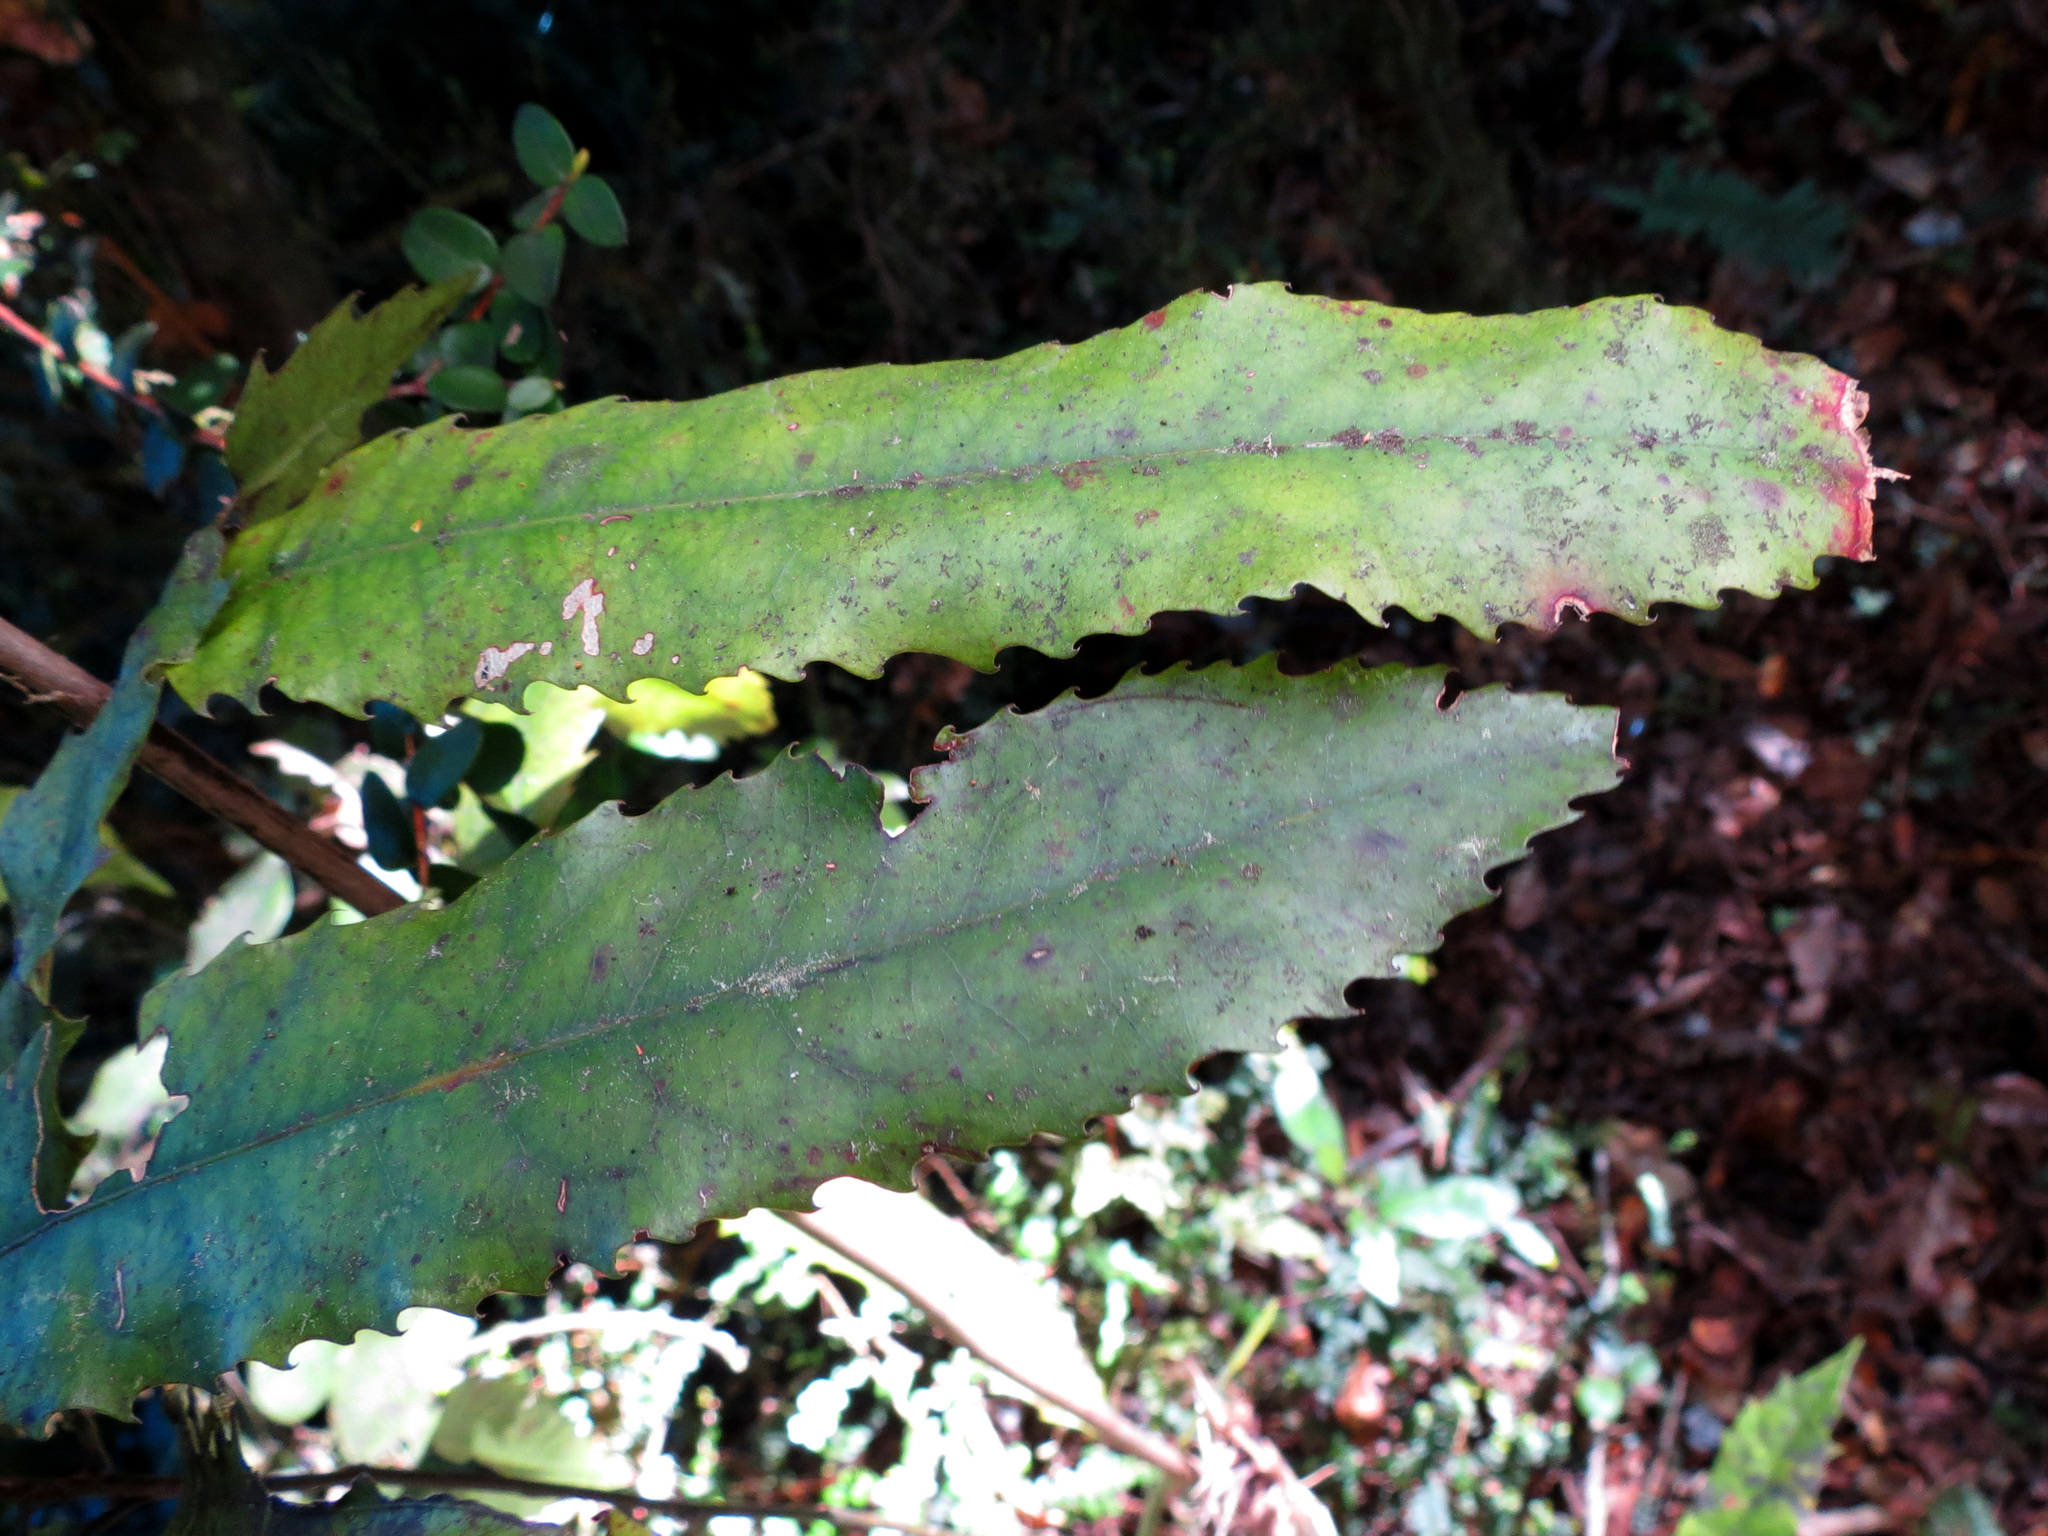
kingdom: Plantae
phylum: Tracheophyta
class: Magnoliopsida
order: Oxalidales
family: Elaeocarpaceae
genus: Elaeocarpus
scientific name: Elaeocarpus dentatus
